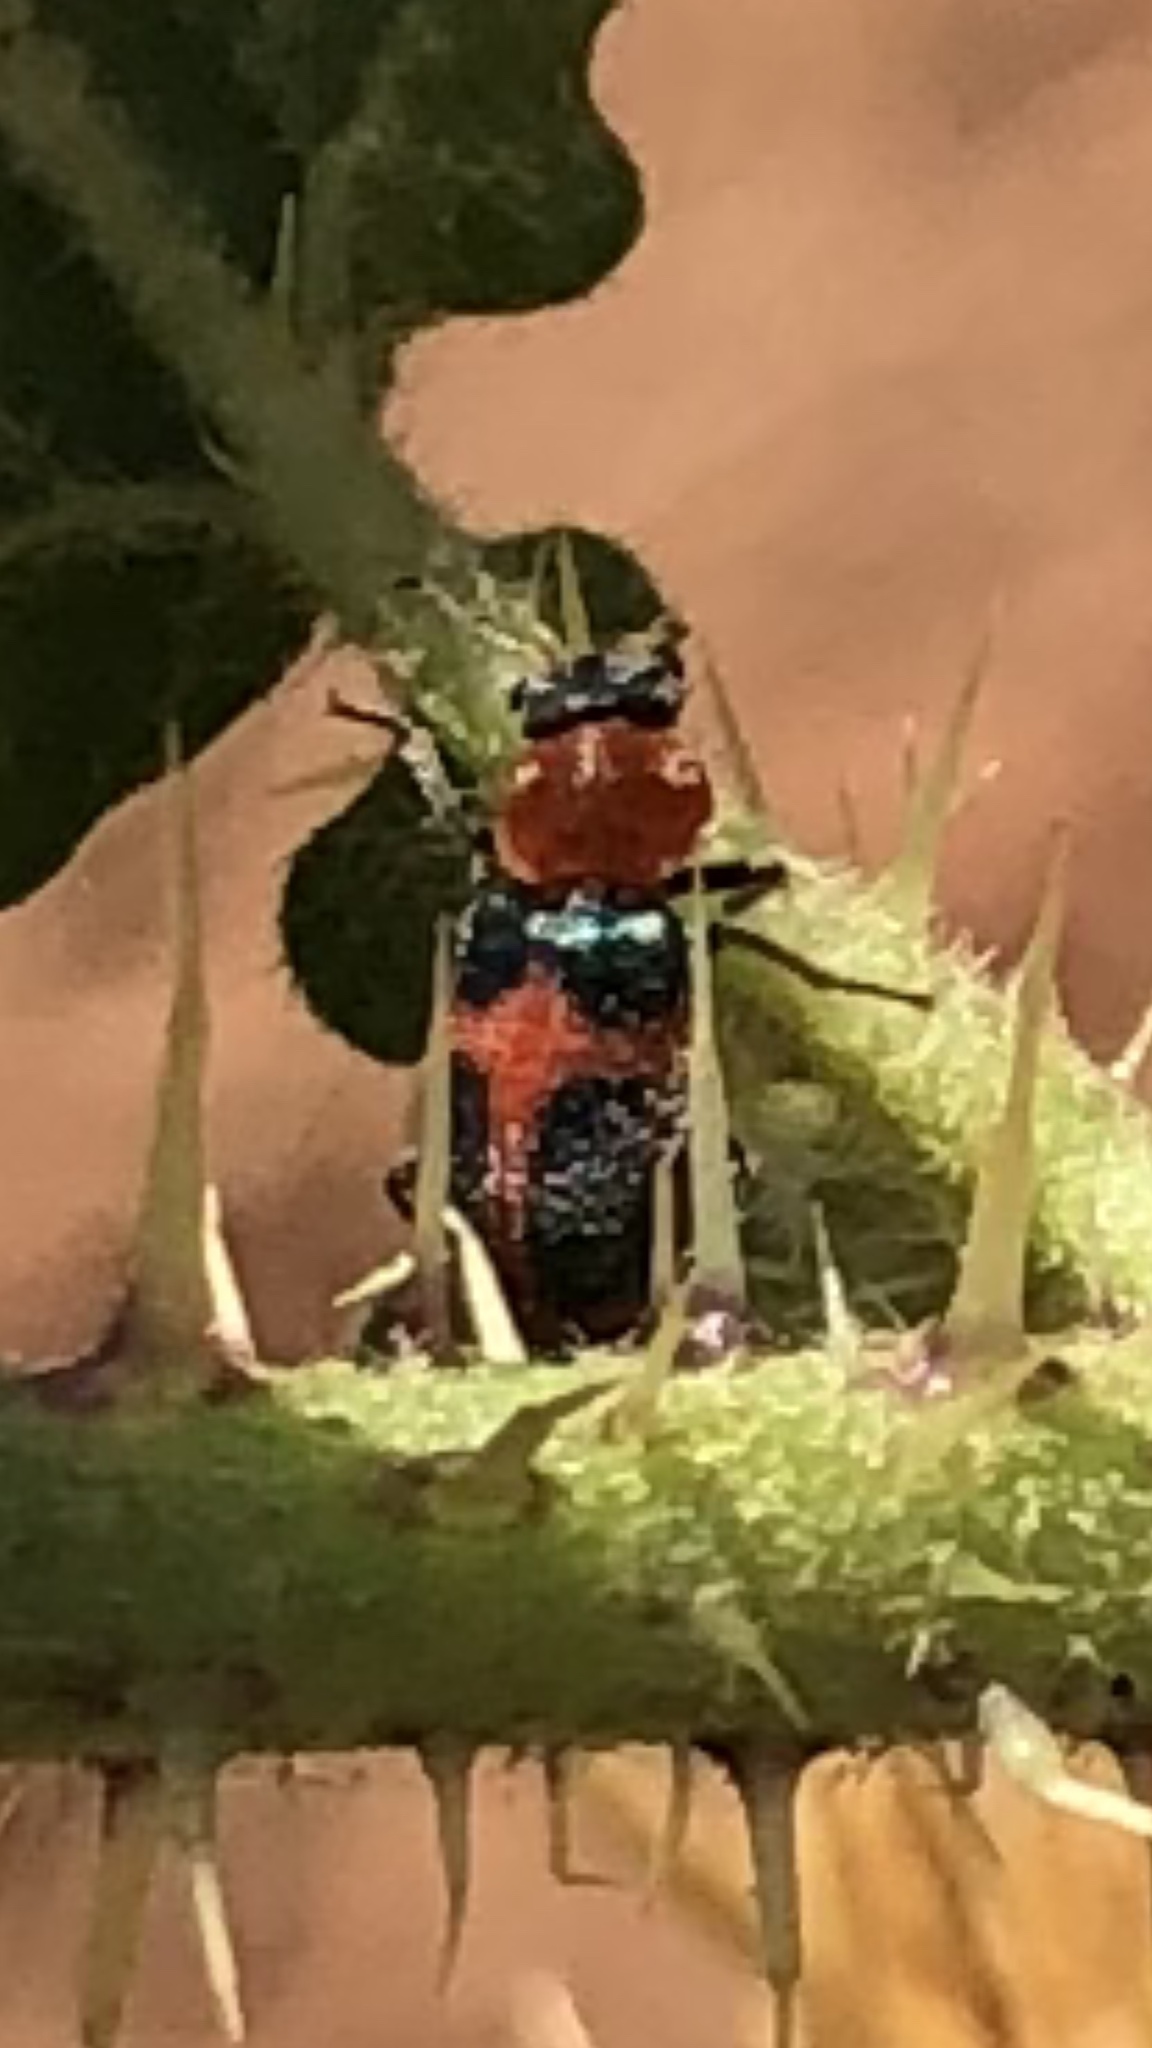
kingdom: Animalia
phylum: Arthropoda
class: Insecta
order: Coleoptera
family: Melyridae
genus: Collops
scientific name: Collops quadrimaculatus
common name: Four-spotted collops
